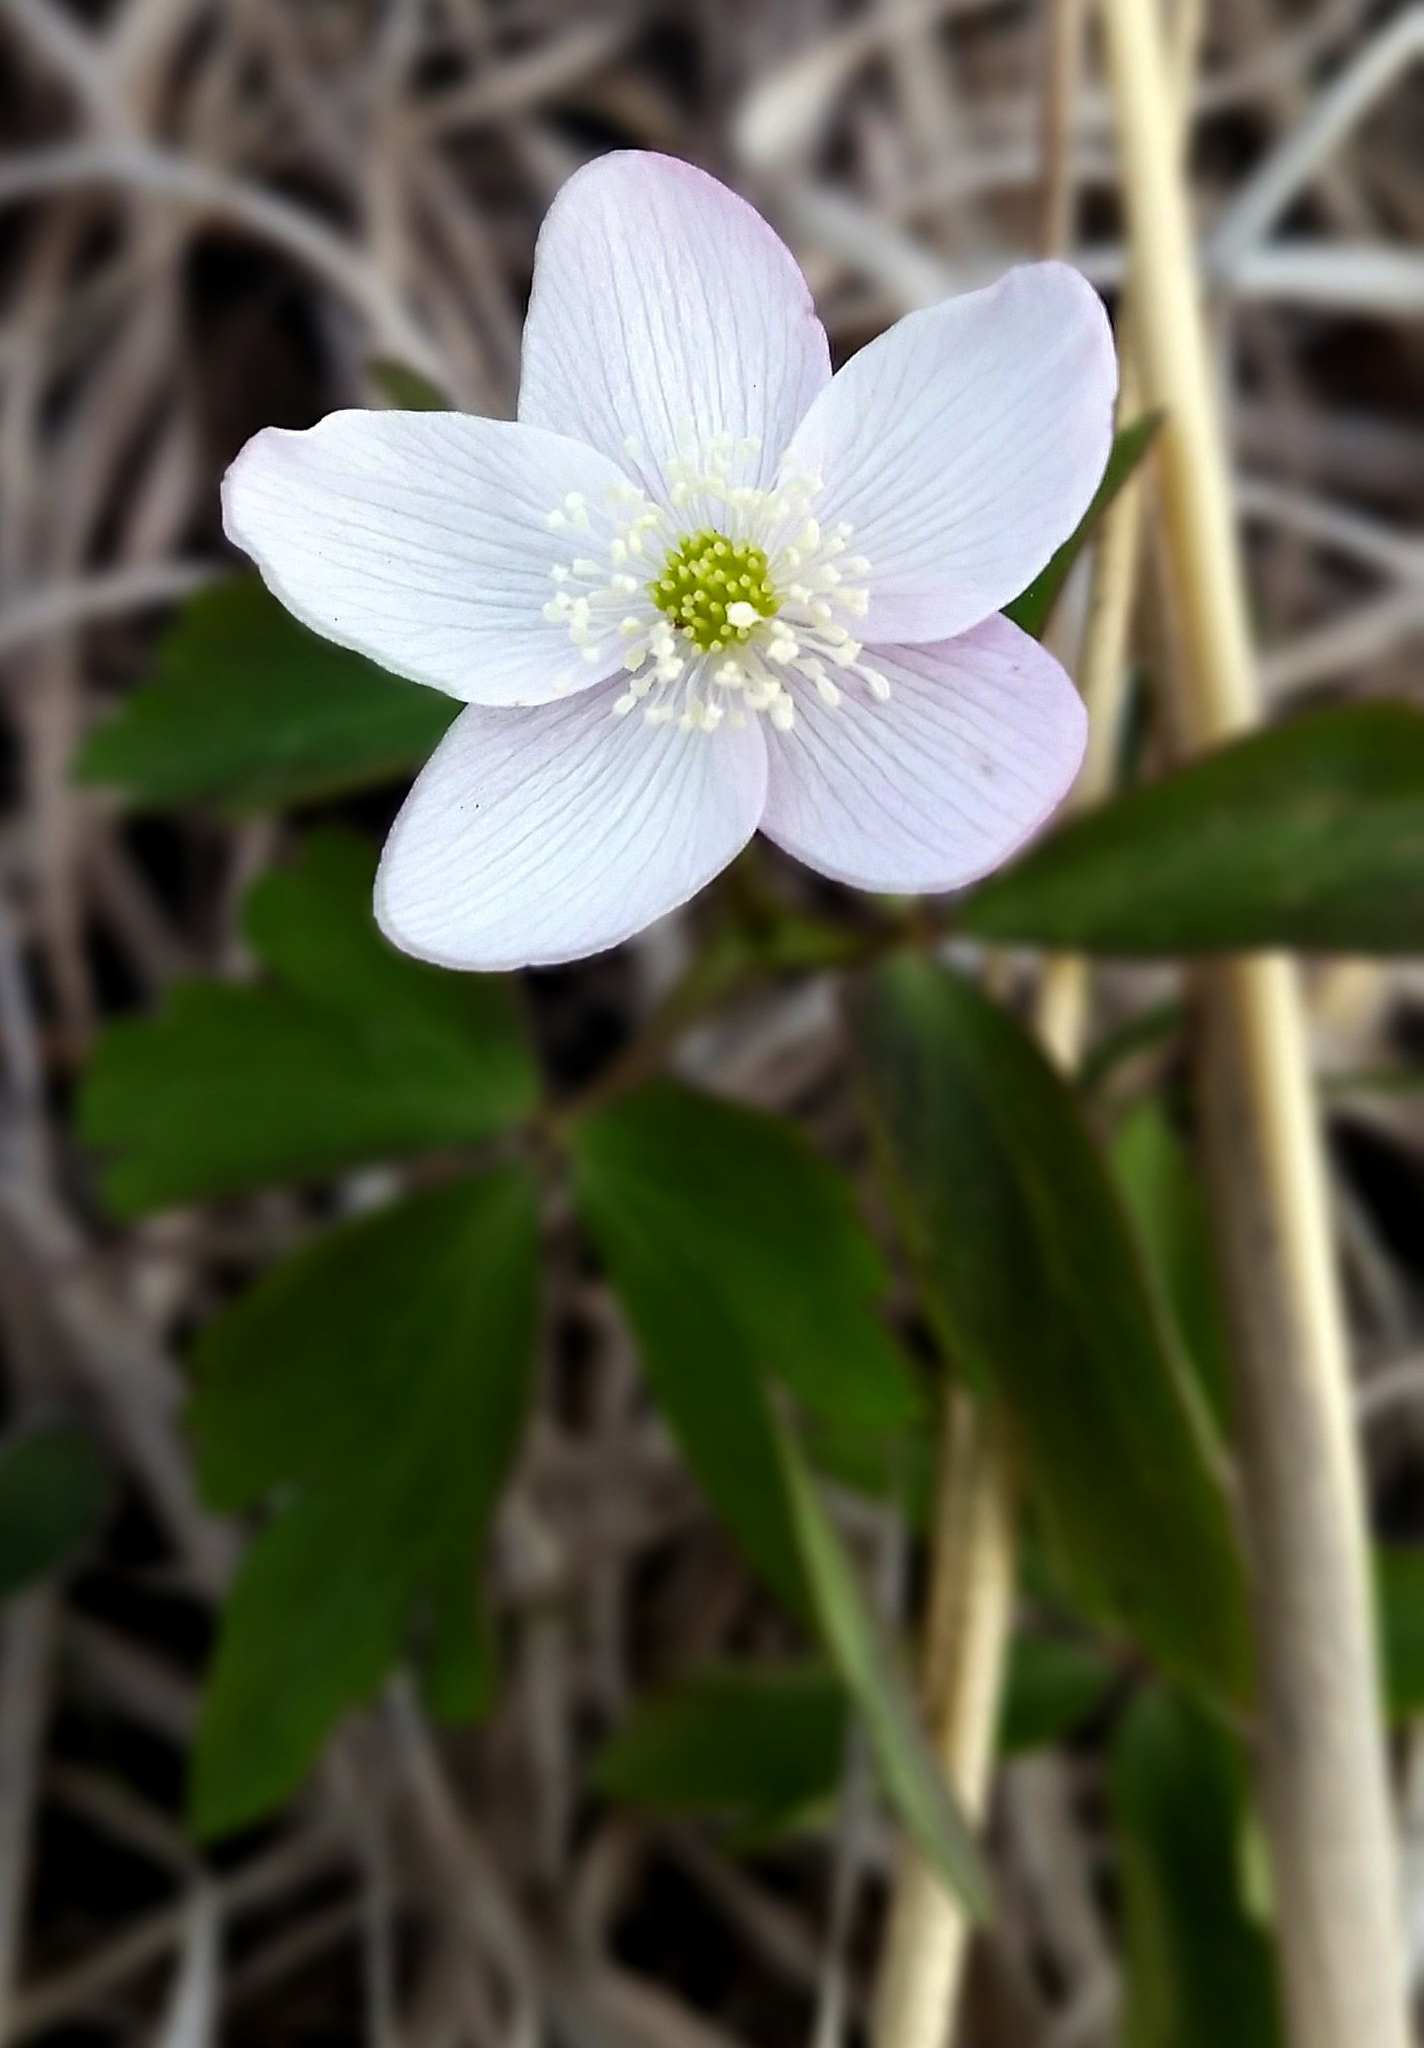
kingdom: Plantae
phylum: Tracheophyta
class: Magnoliopsida
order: Ranunculales
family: Ranunculaceae
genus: Anemone
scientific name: Anemone quinquefolia
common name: Wood anemone
